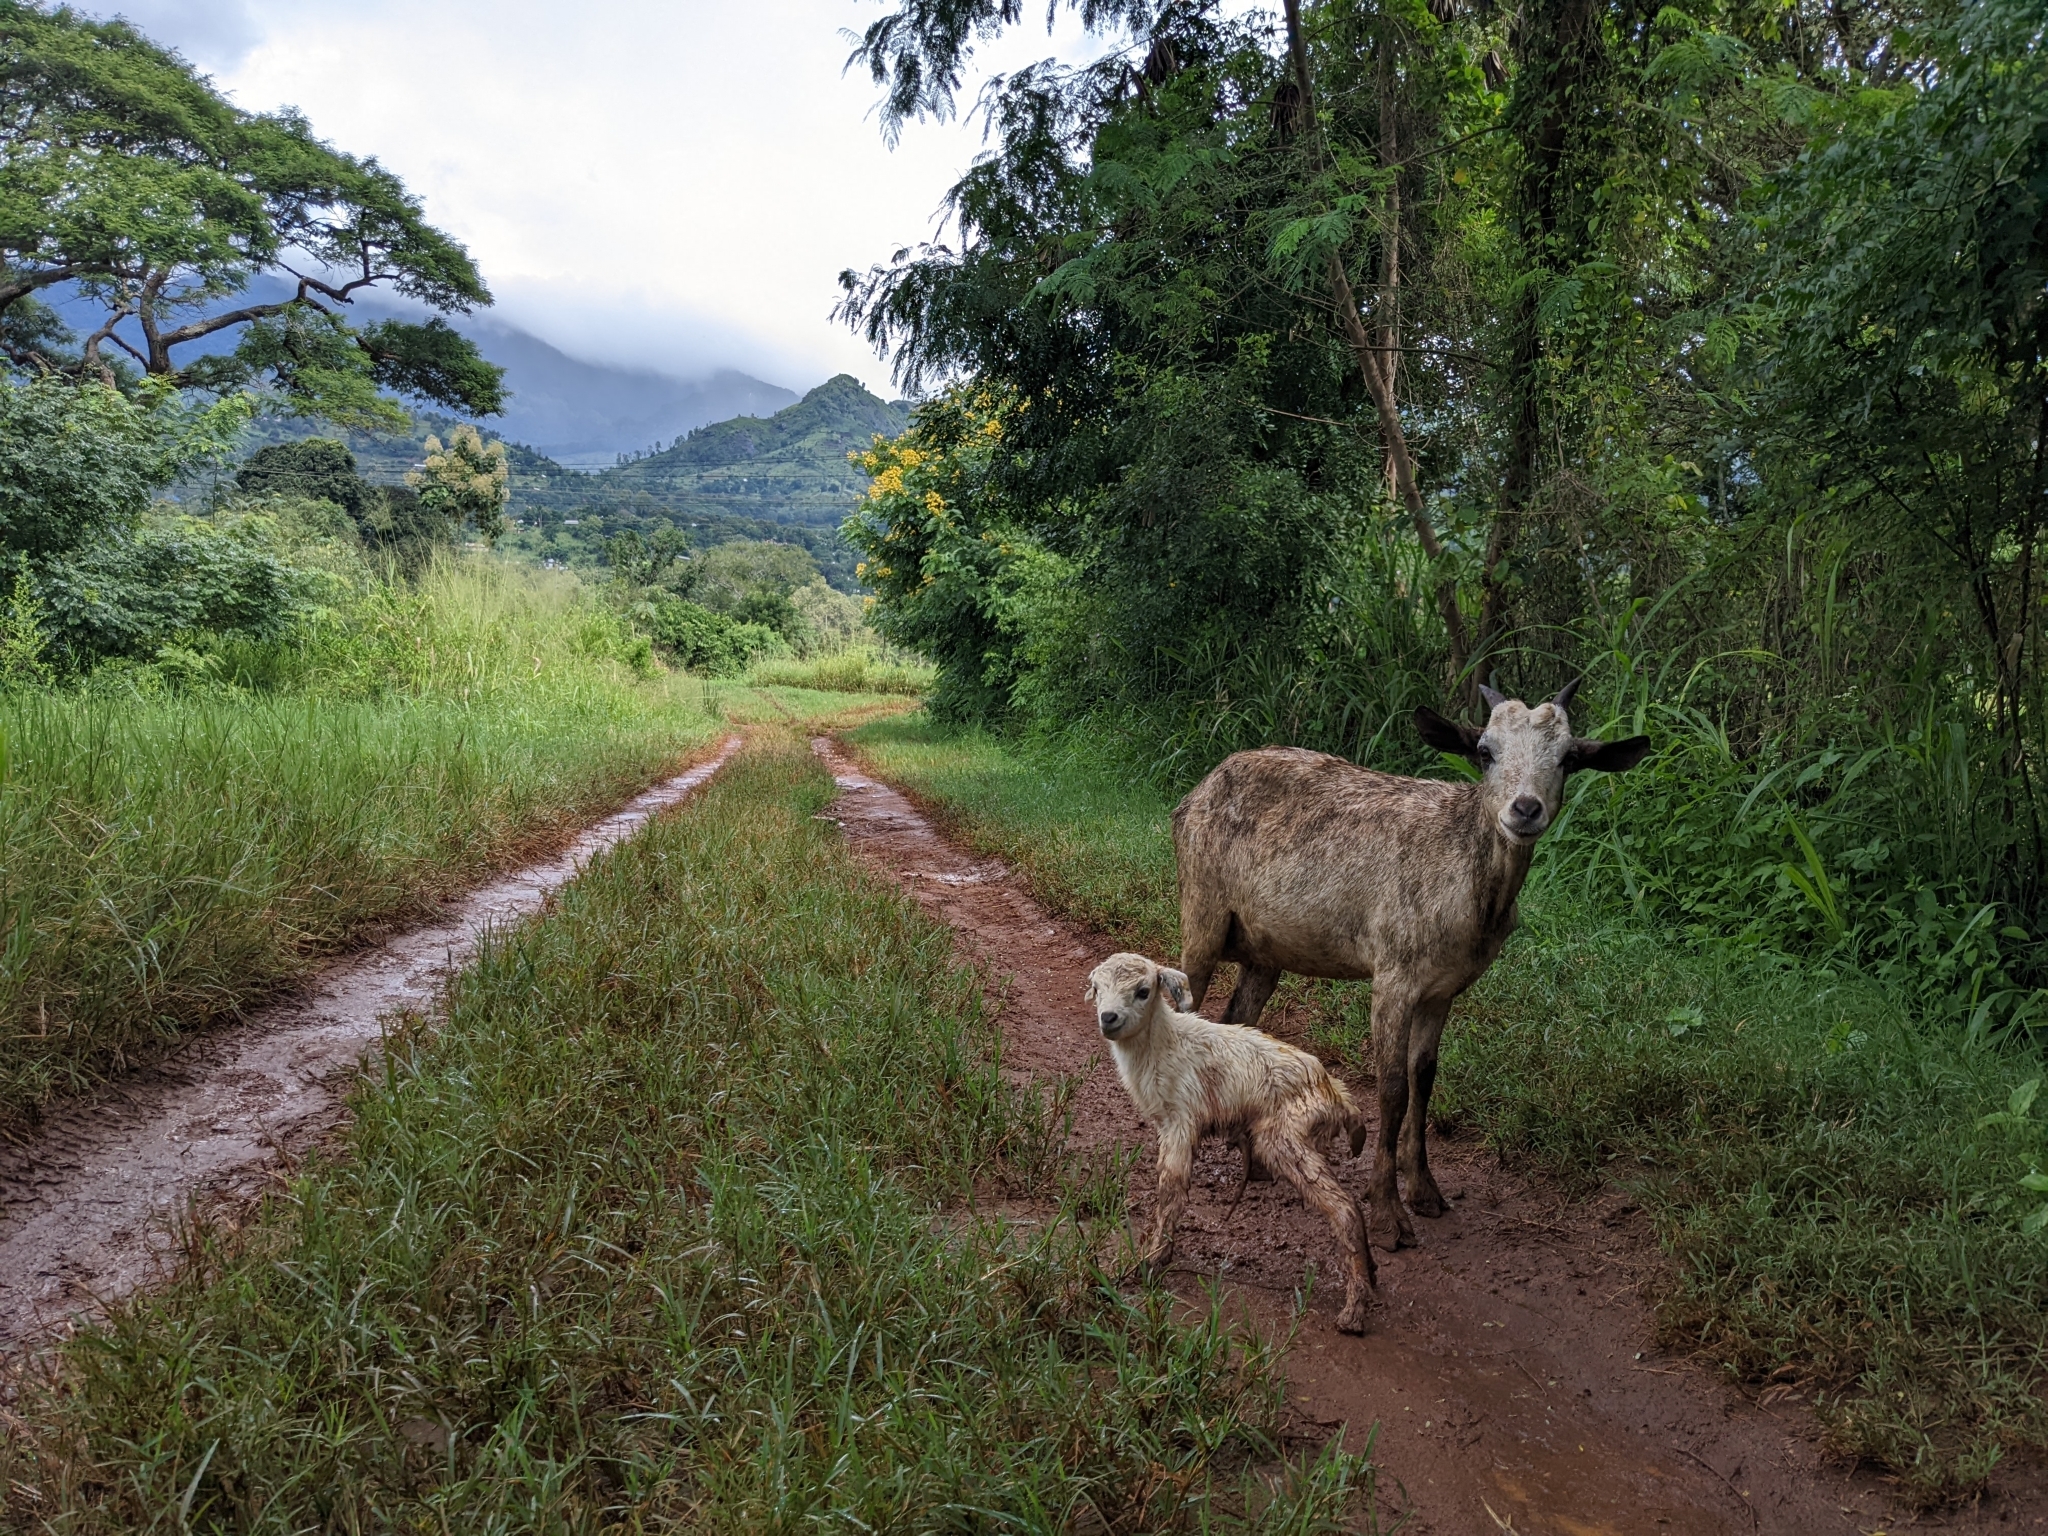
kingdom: Animalia
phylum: Chordata
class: Mammalia
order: Artiodactyla
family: Bovidae
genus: Capra
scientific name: Capra hircus
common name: Domestic goat
